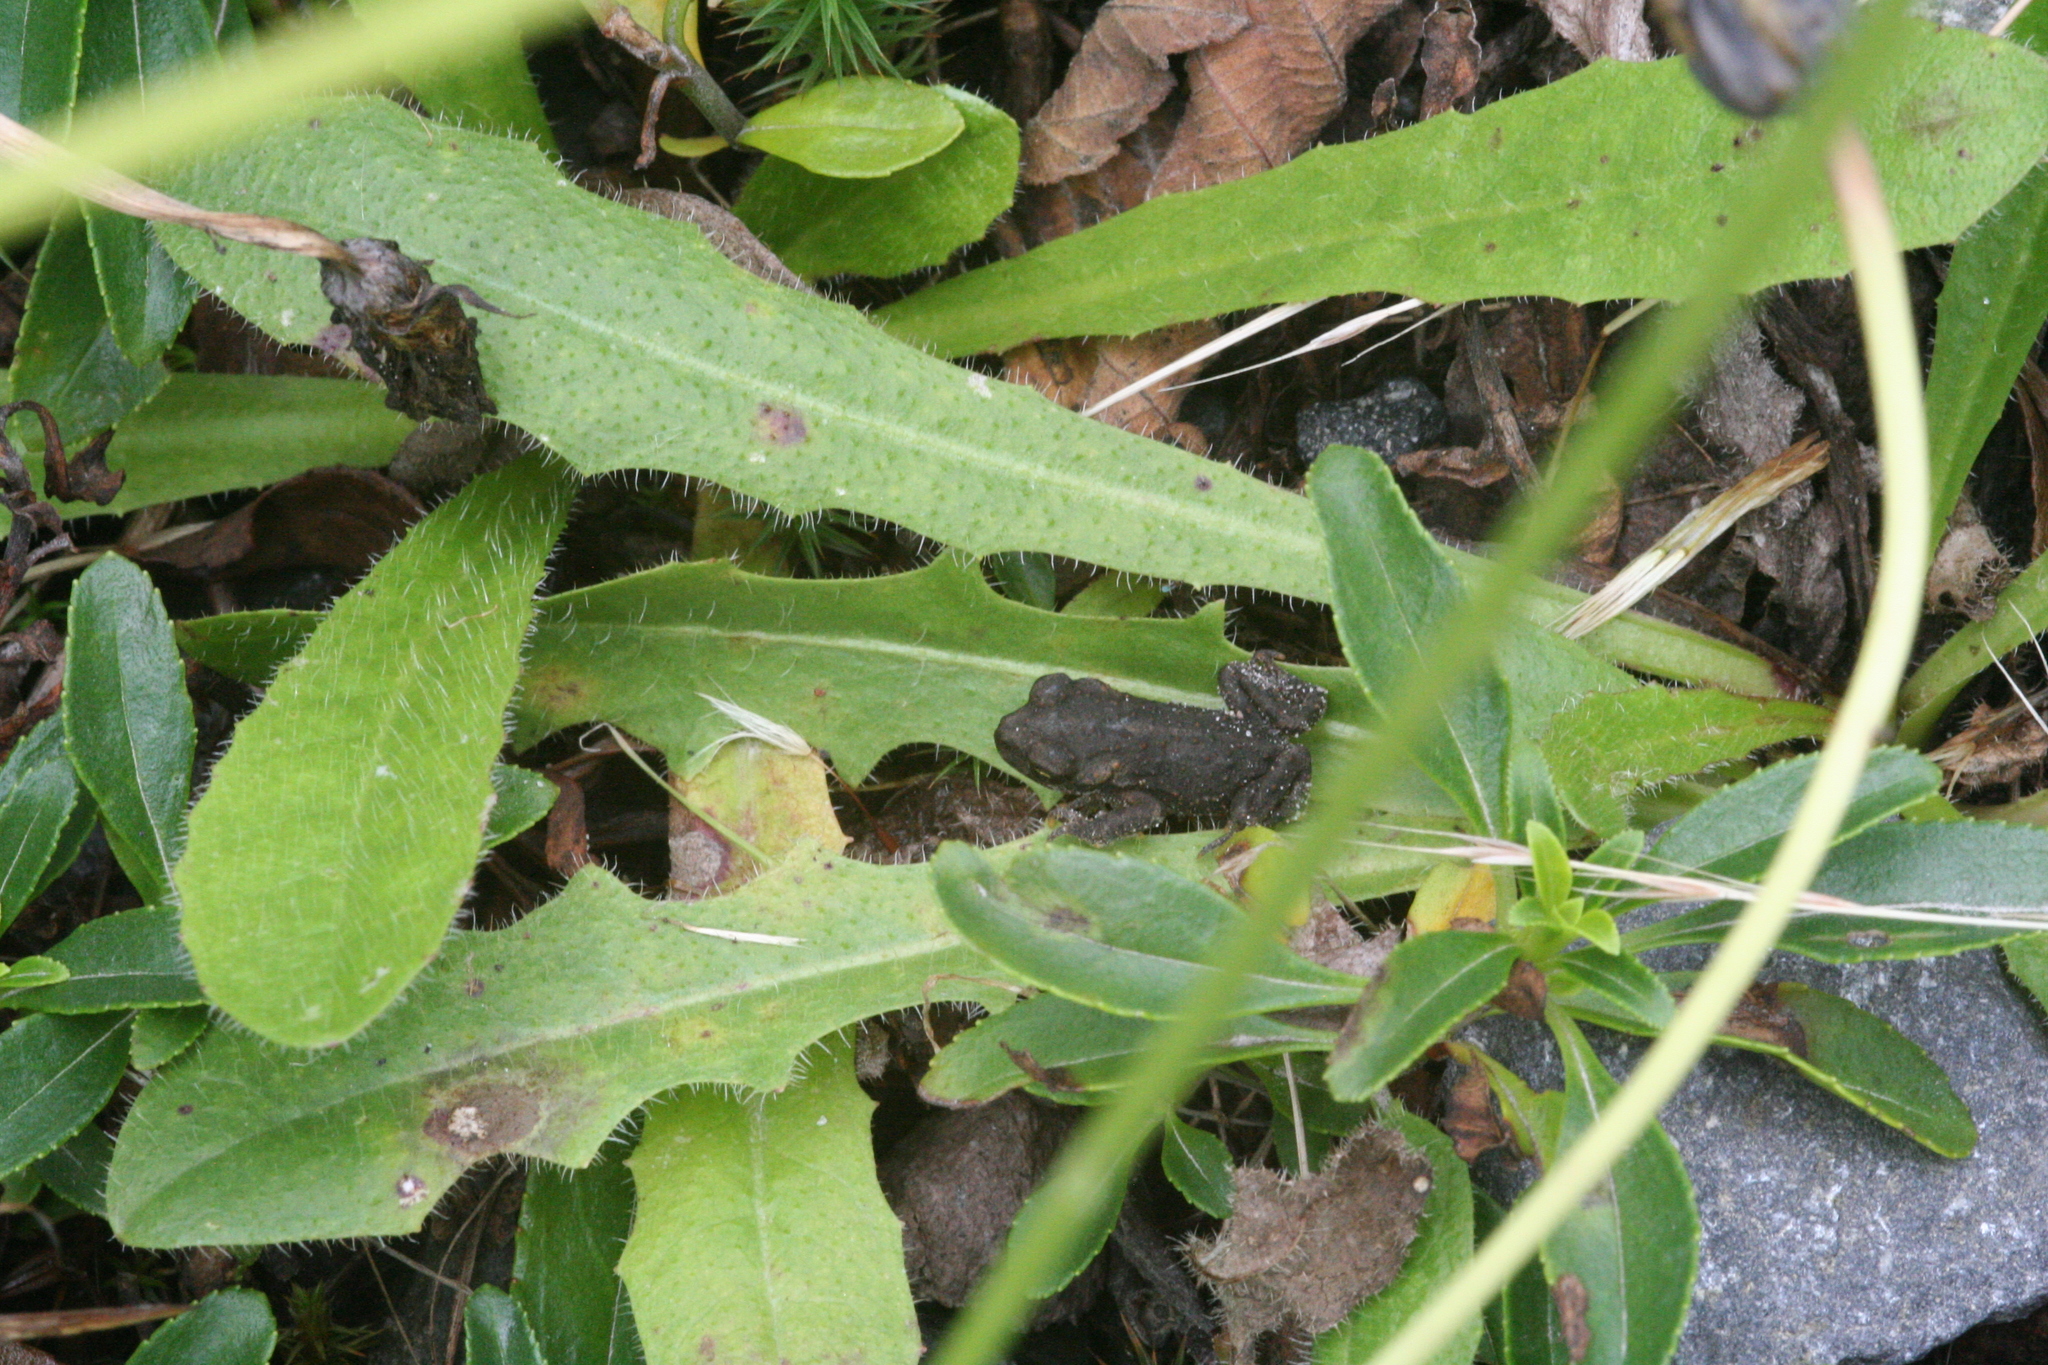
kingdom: Animalia
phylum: Chordata
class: Amphibia
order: Anura
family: Bufonidae
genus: Anaxyrus
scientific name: Anaxyrus boreas
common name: Western toad
